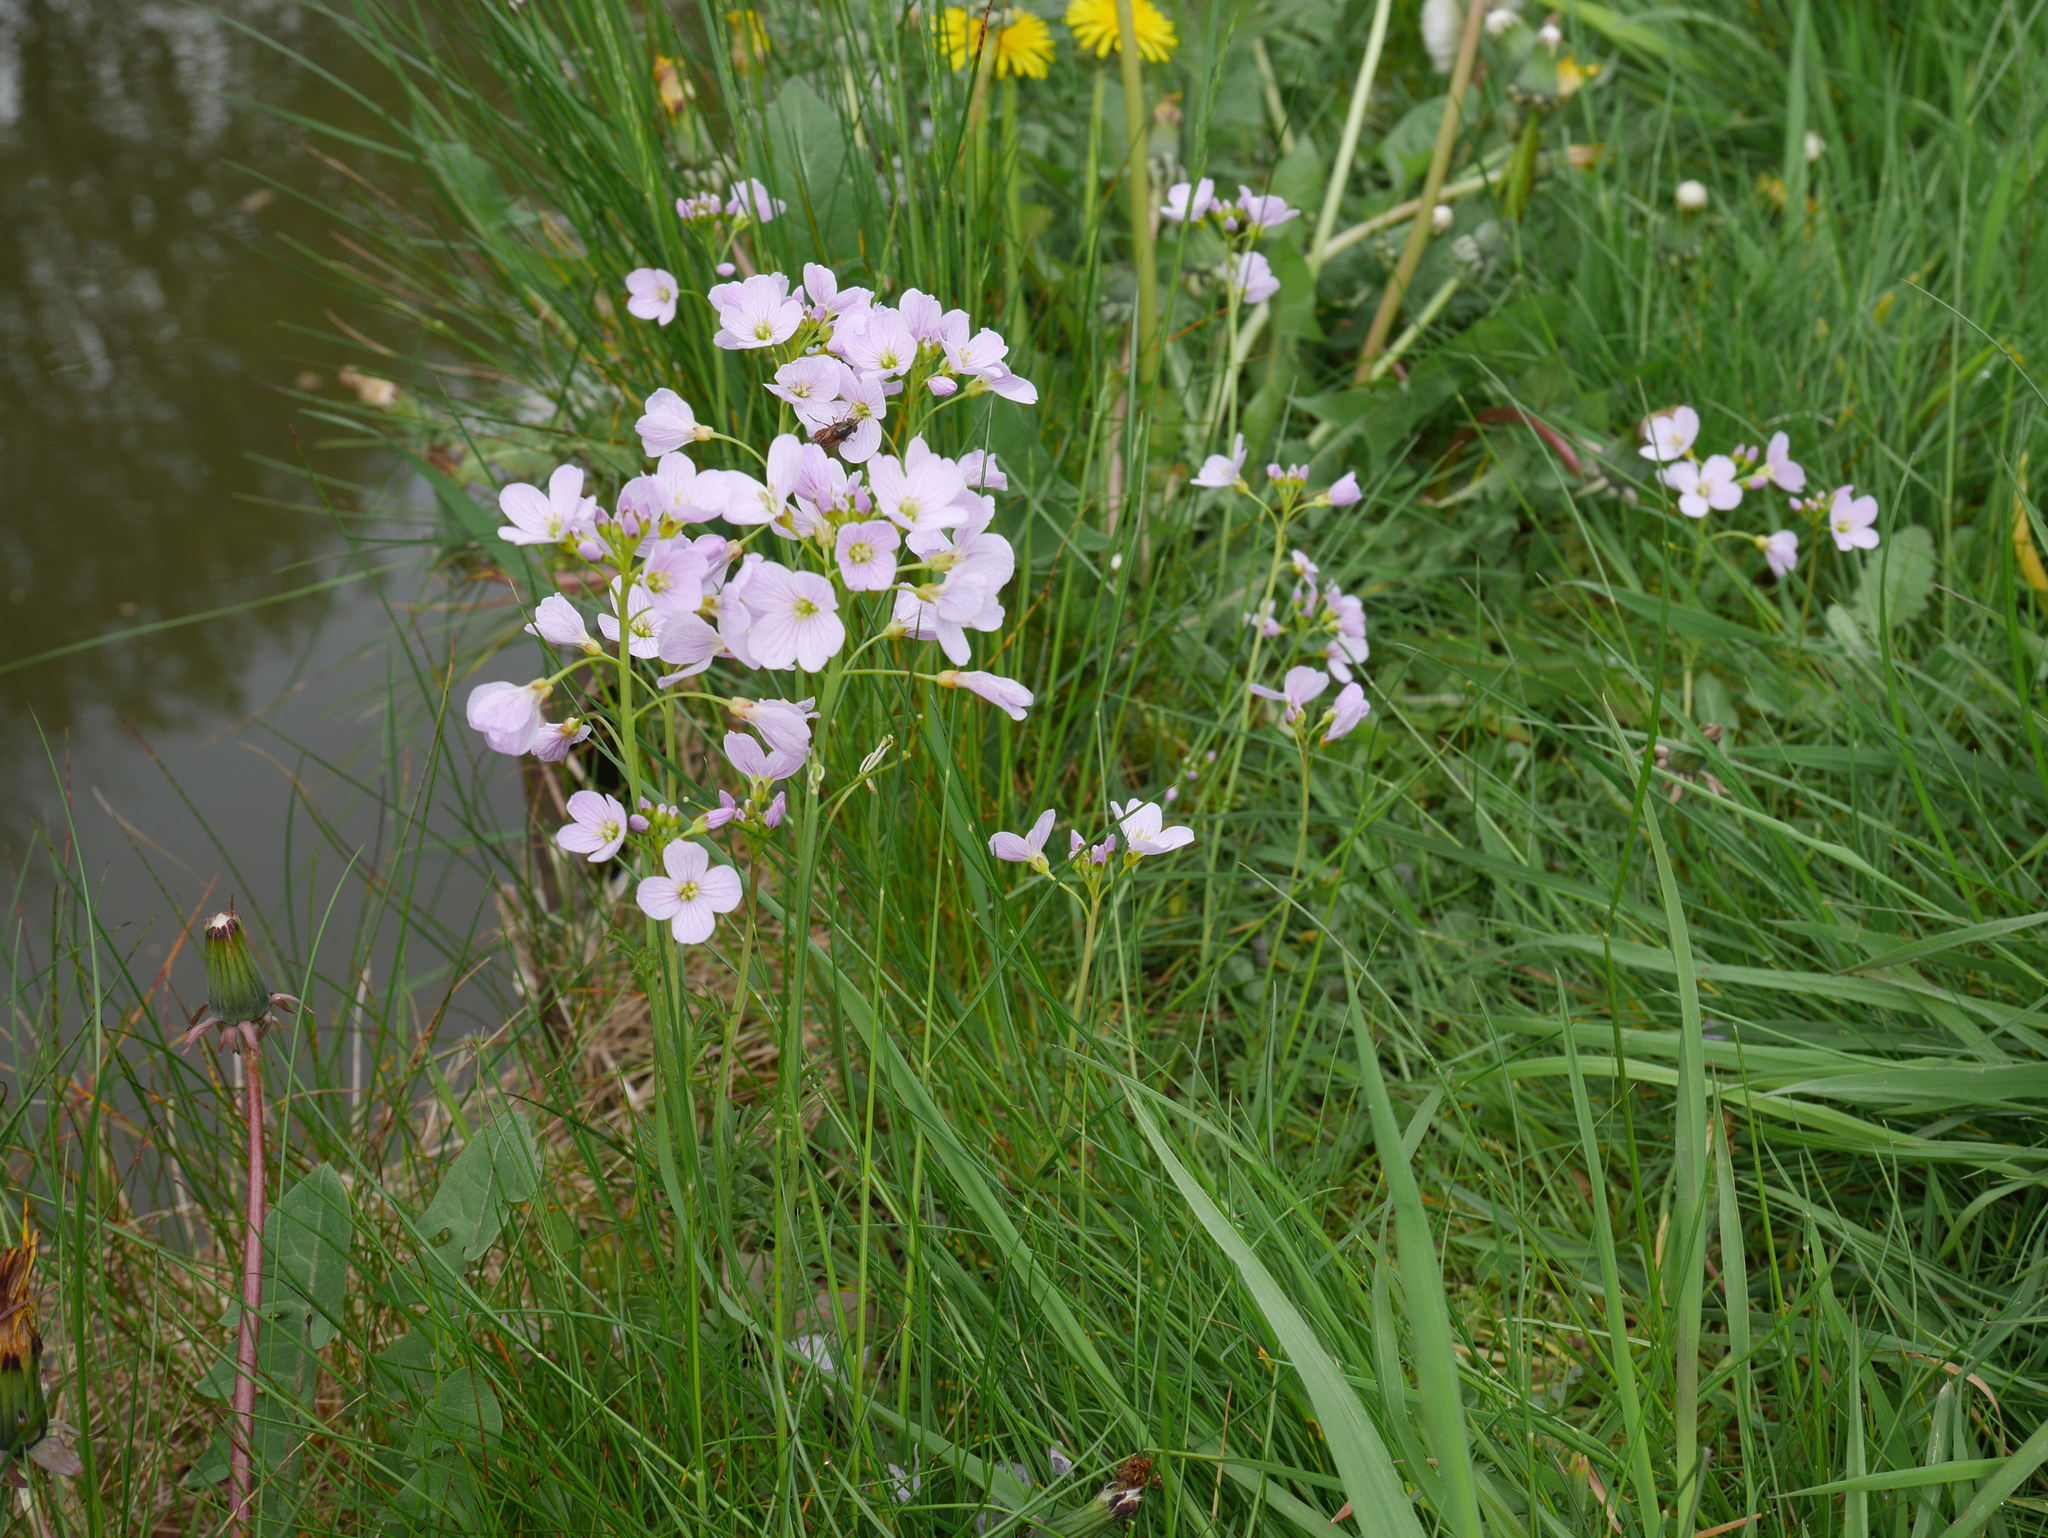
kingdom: Plantae
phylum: Tracheophyta
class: Magnoliopsida
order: Brassicales
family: Brassicaceae
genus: Cardamine
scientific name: Cardamine pratensis
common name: Cuckoo flower
